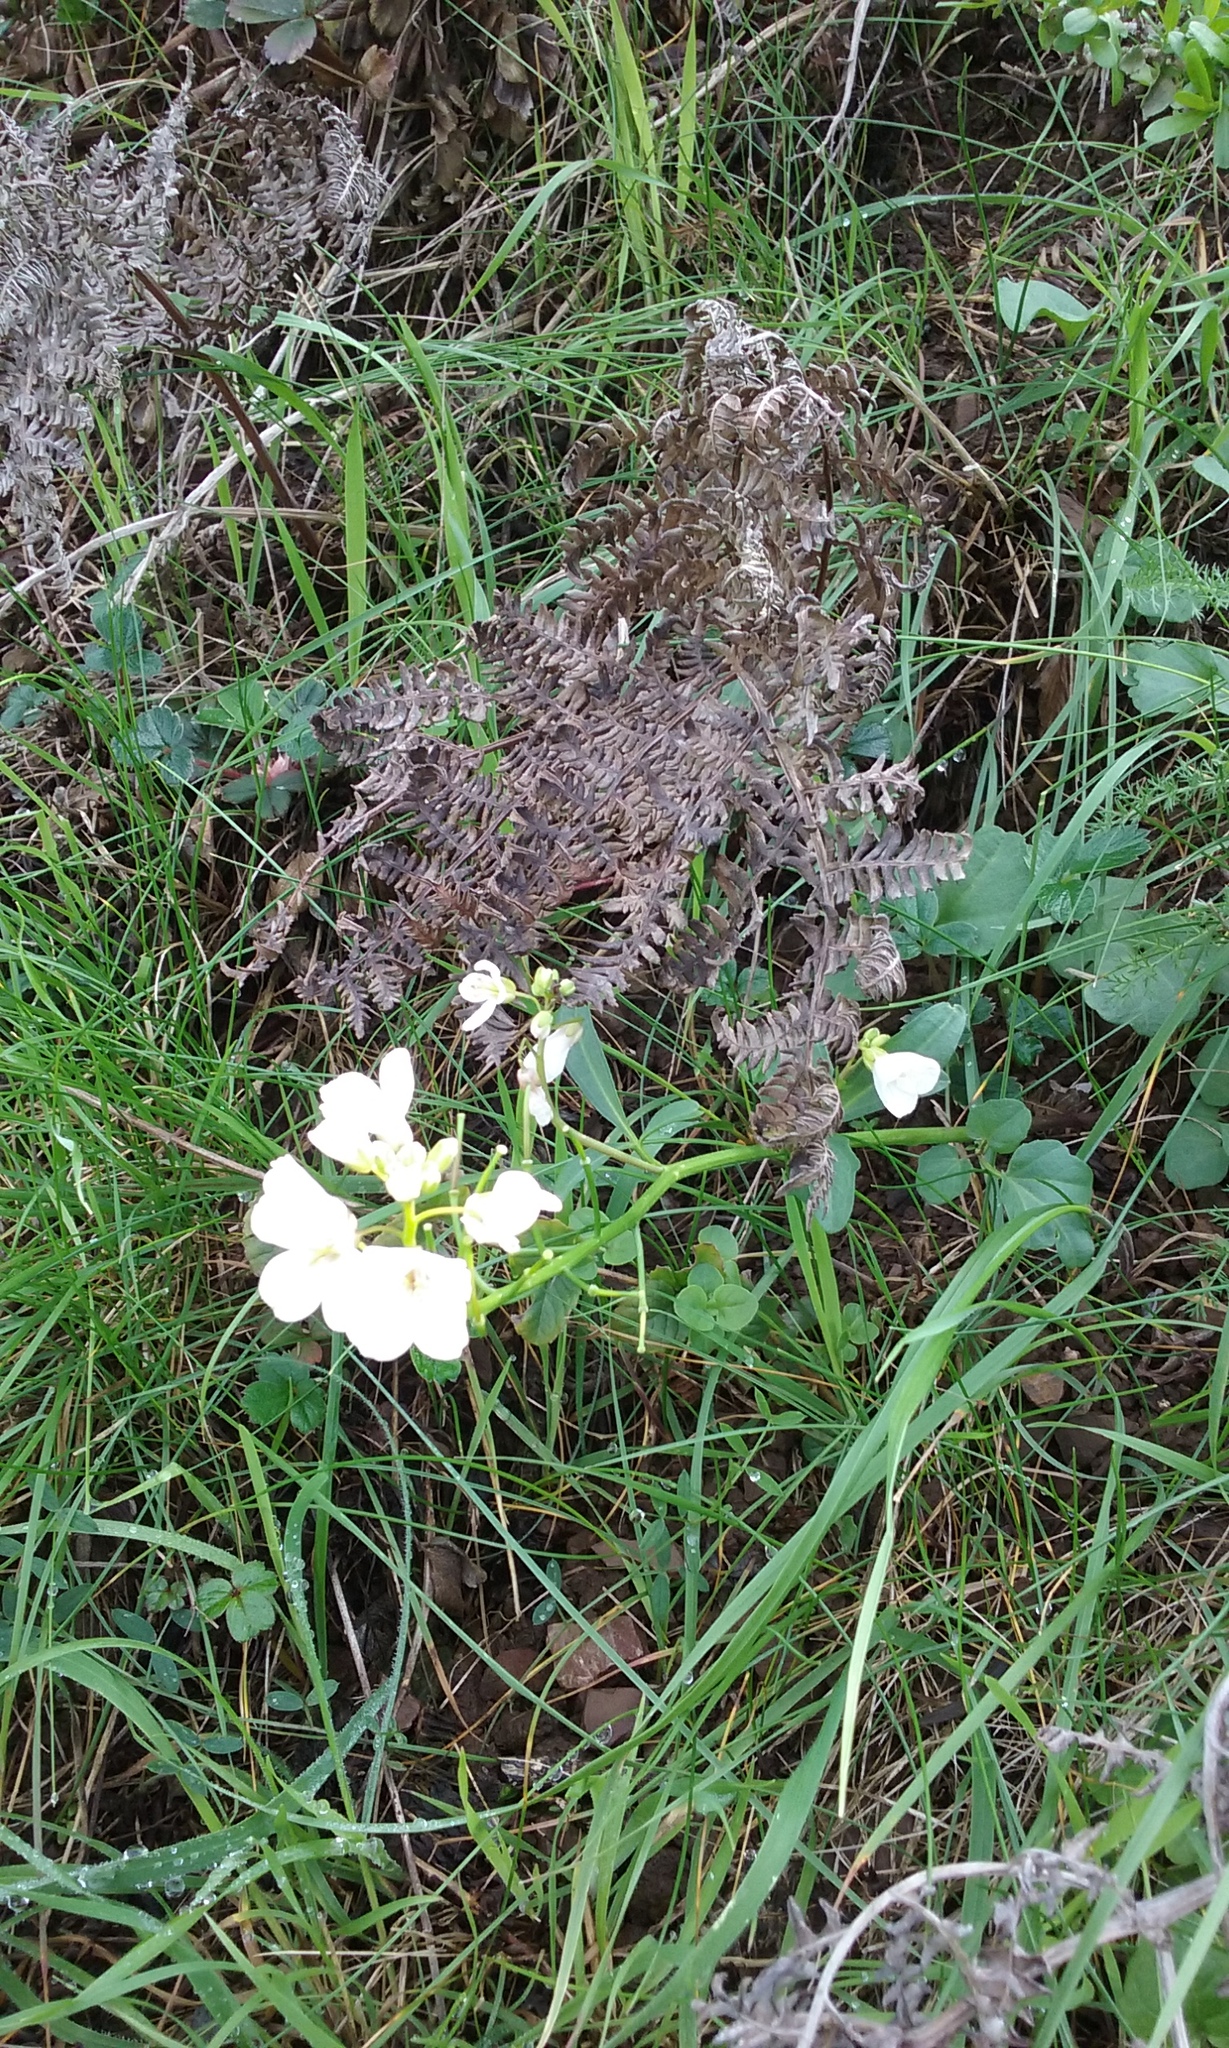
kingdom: Plantae
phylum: Tracheophyta
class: Magnoliopsida
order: Brassicales
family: Brassicaceae
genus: Cardamine
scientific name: Cardamine californica
